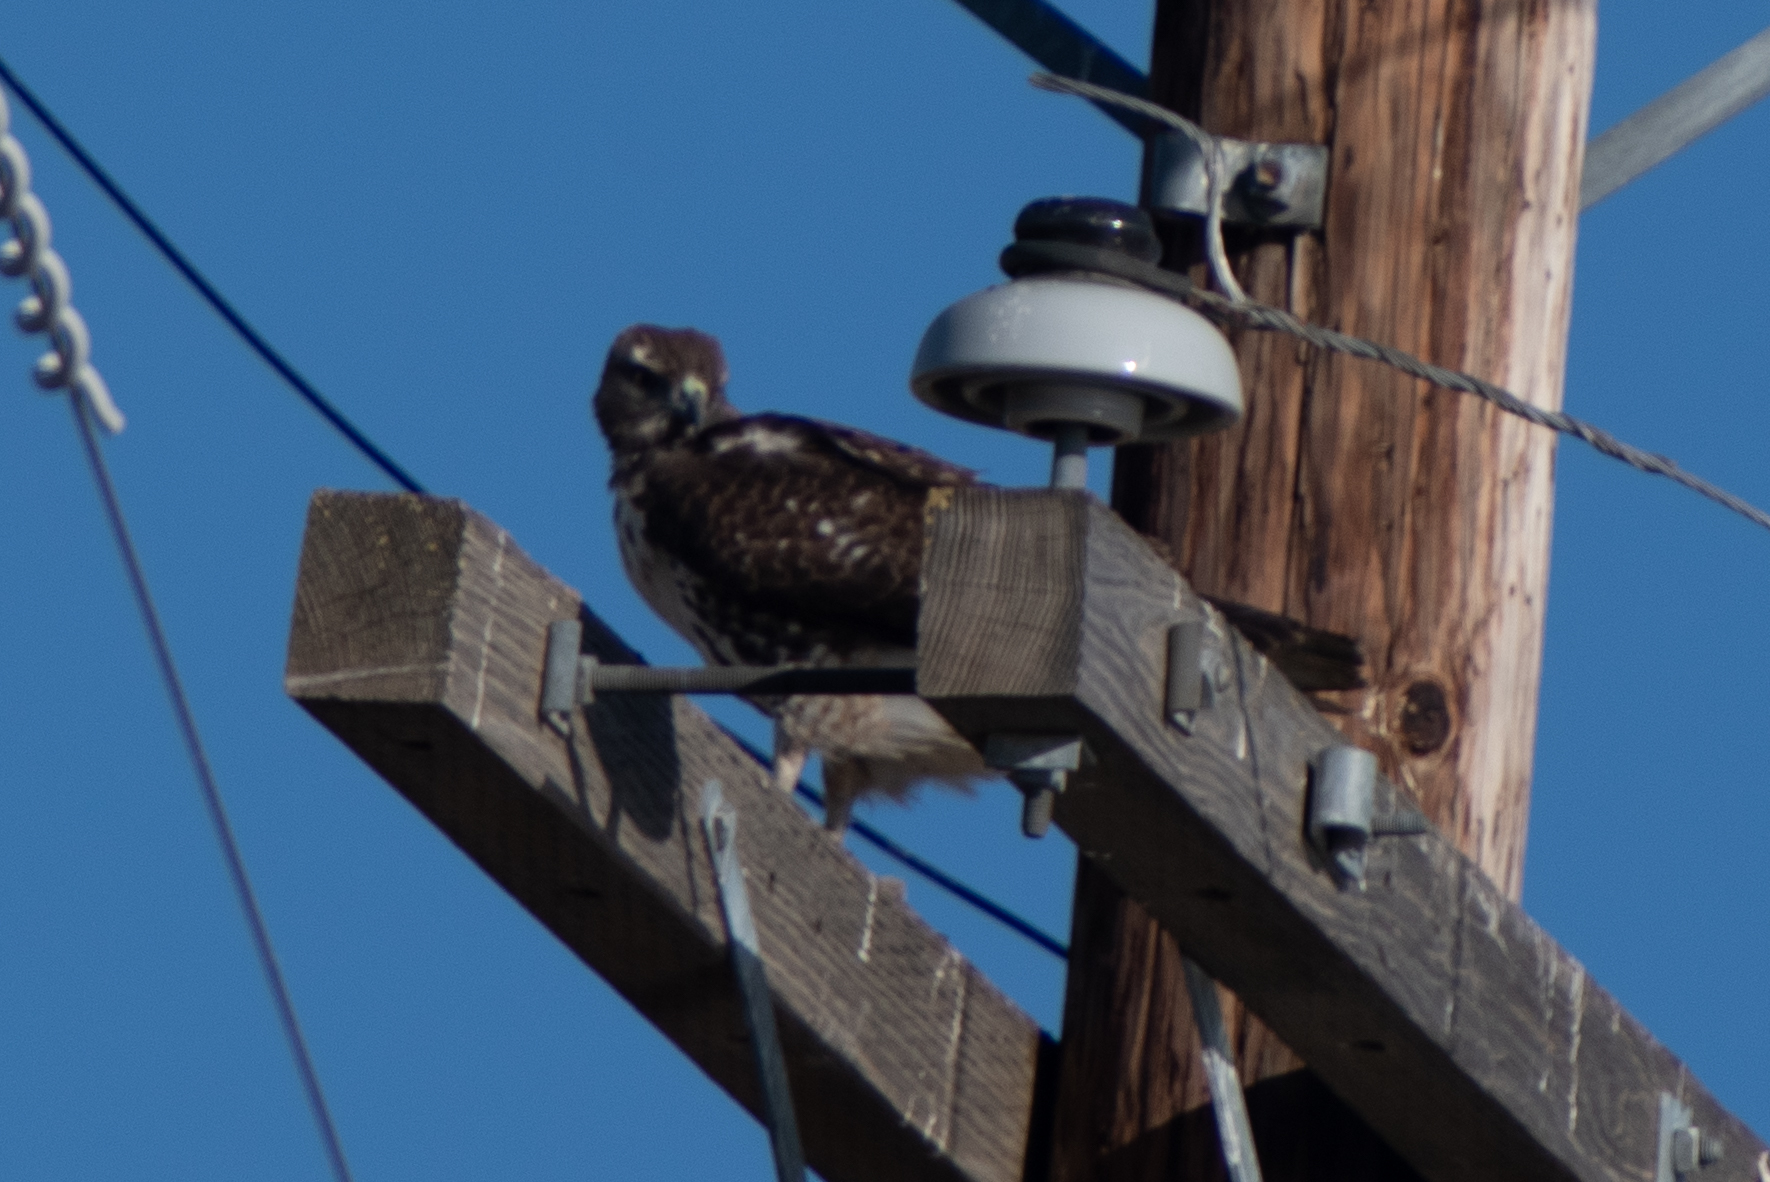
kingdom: Animalia
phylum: Chordata
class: Aves
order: Accipitriformes
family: Accipitridae
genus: Buteo
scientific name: Buteo jamaicensis
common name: Red-tailed hawk
